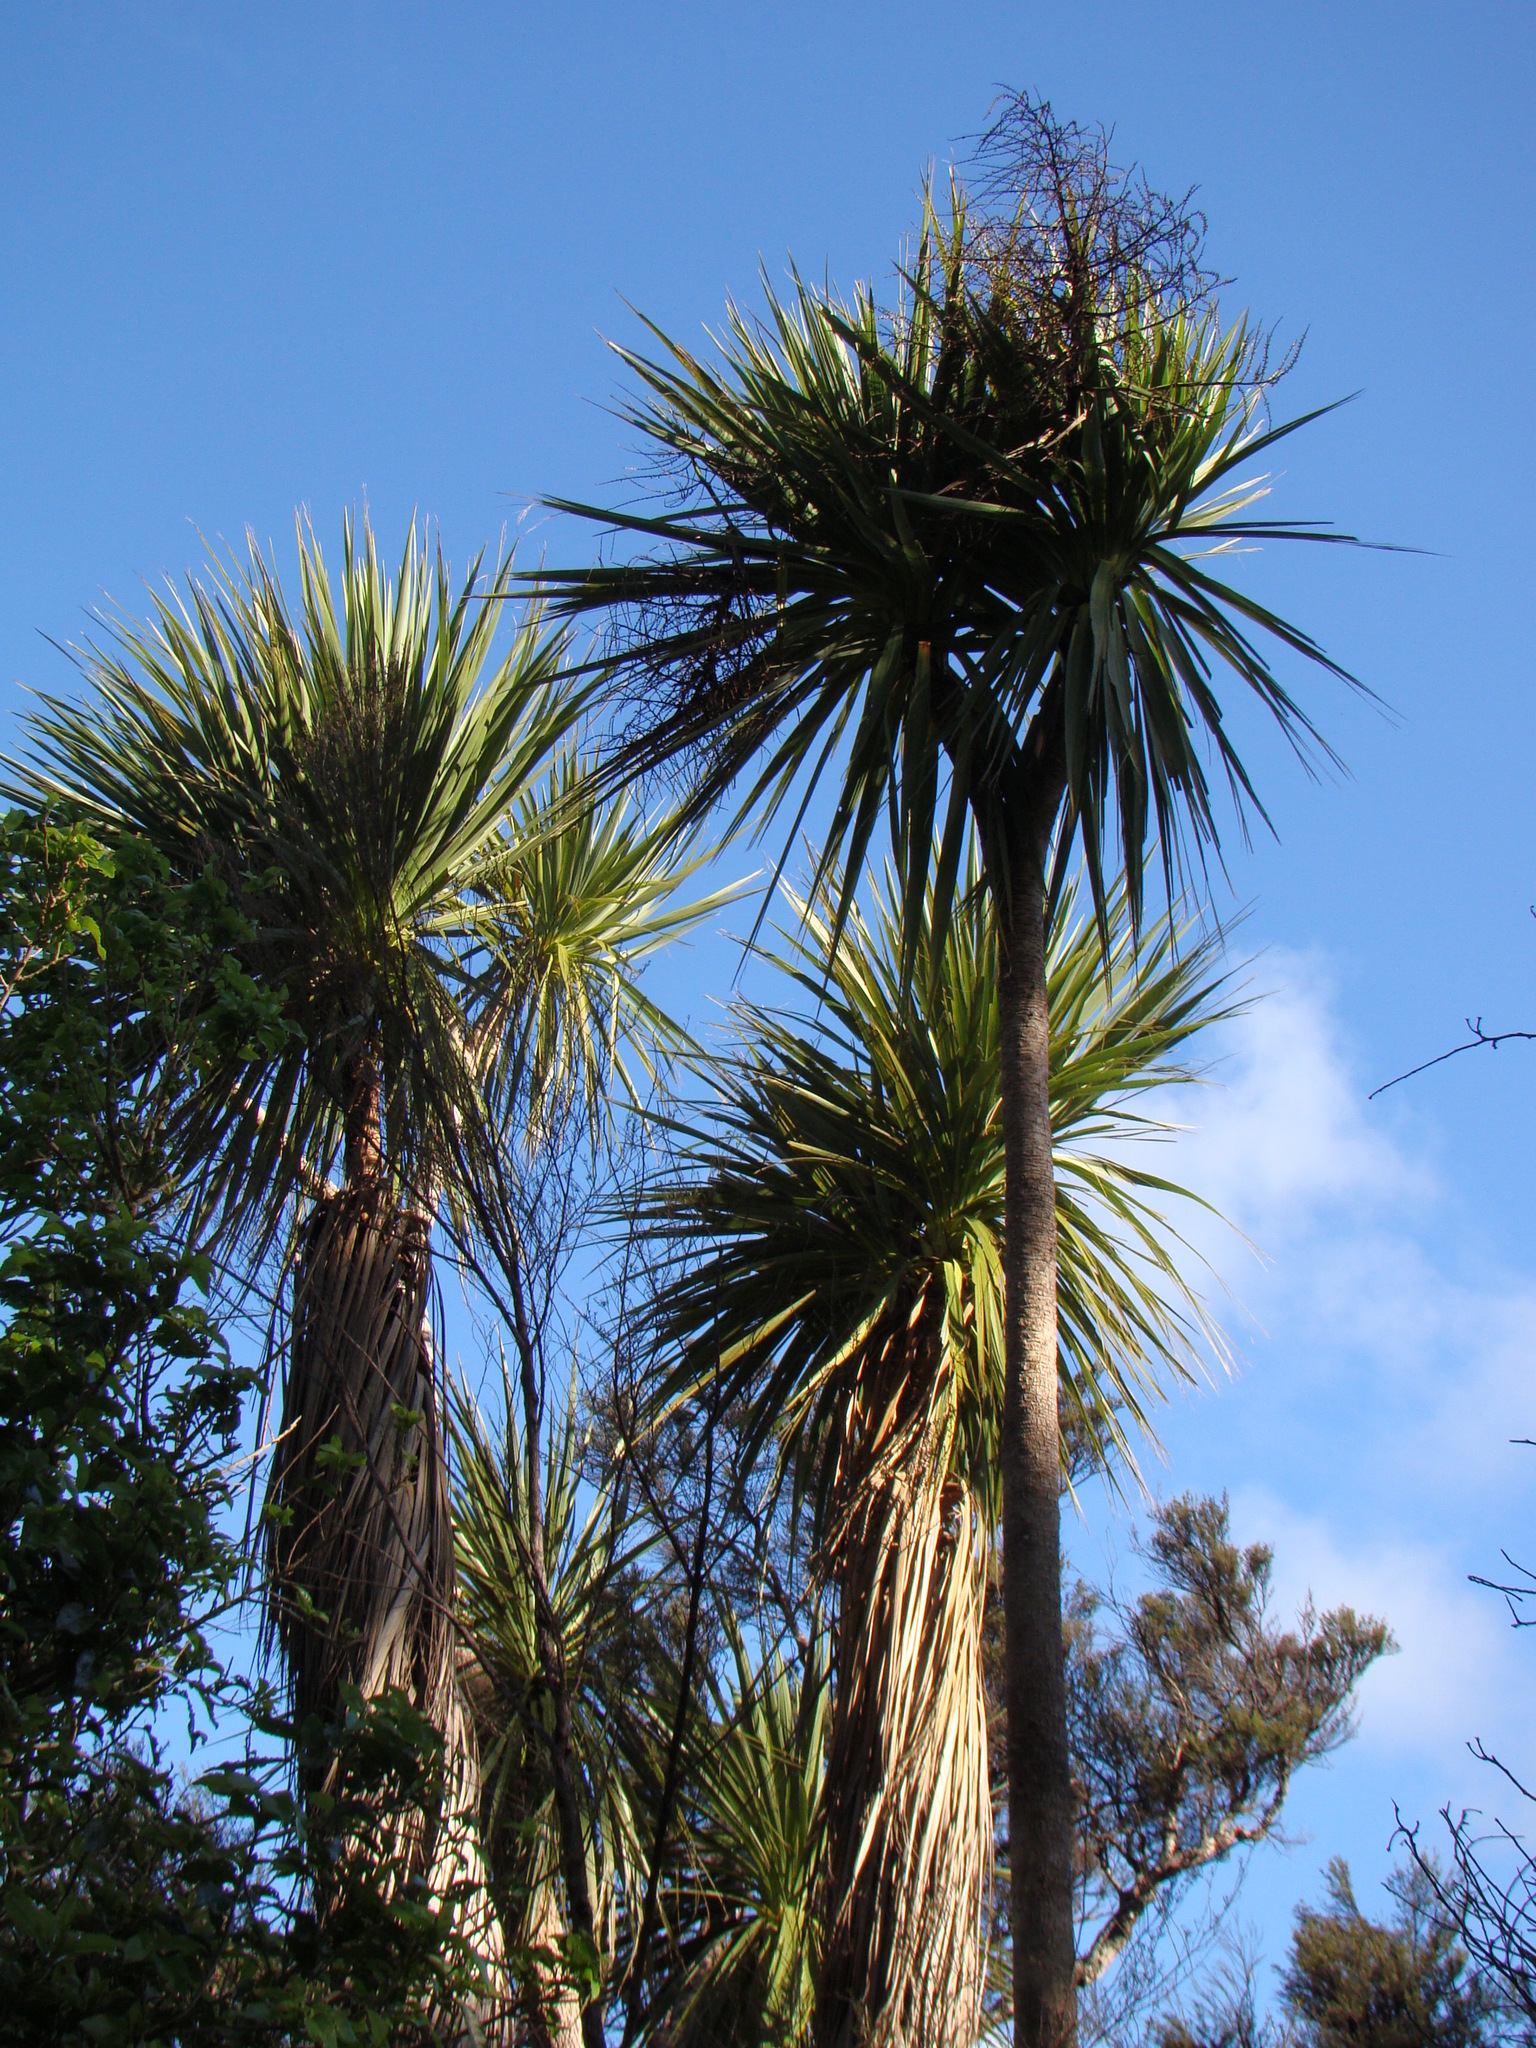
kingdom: Plantae
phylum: Tracheophyta
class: Liliopsida
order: Asparagales
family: Asparagaceae
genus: Cordyline
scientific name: Cordyline australis
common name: Cabbage-palm
